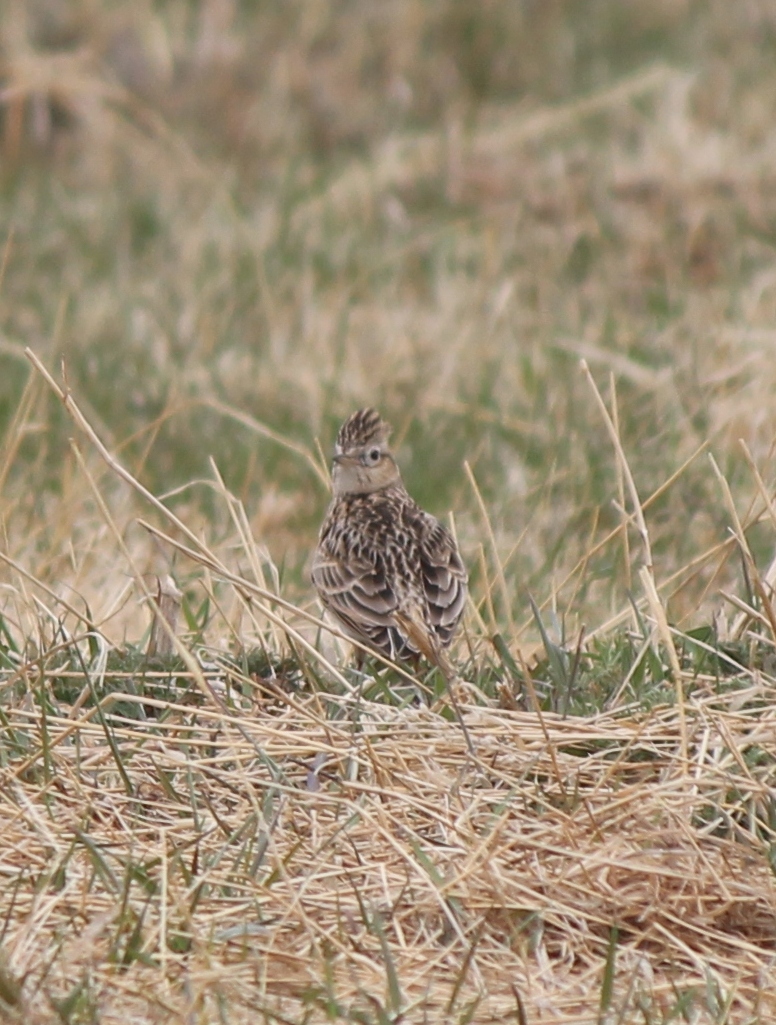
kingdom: Animalia
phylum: Chordata
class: Aves
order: Passeriformes
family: Alaudidae
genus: Alauda
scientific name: Alauda arvensis
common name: Eurasian skylark
